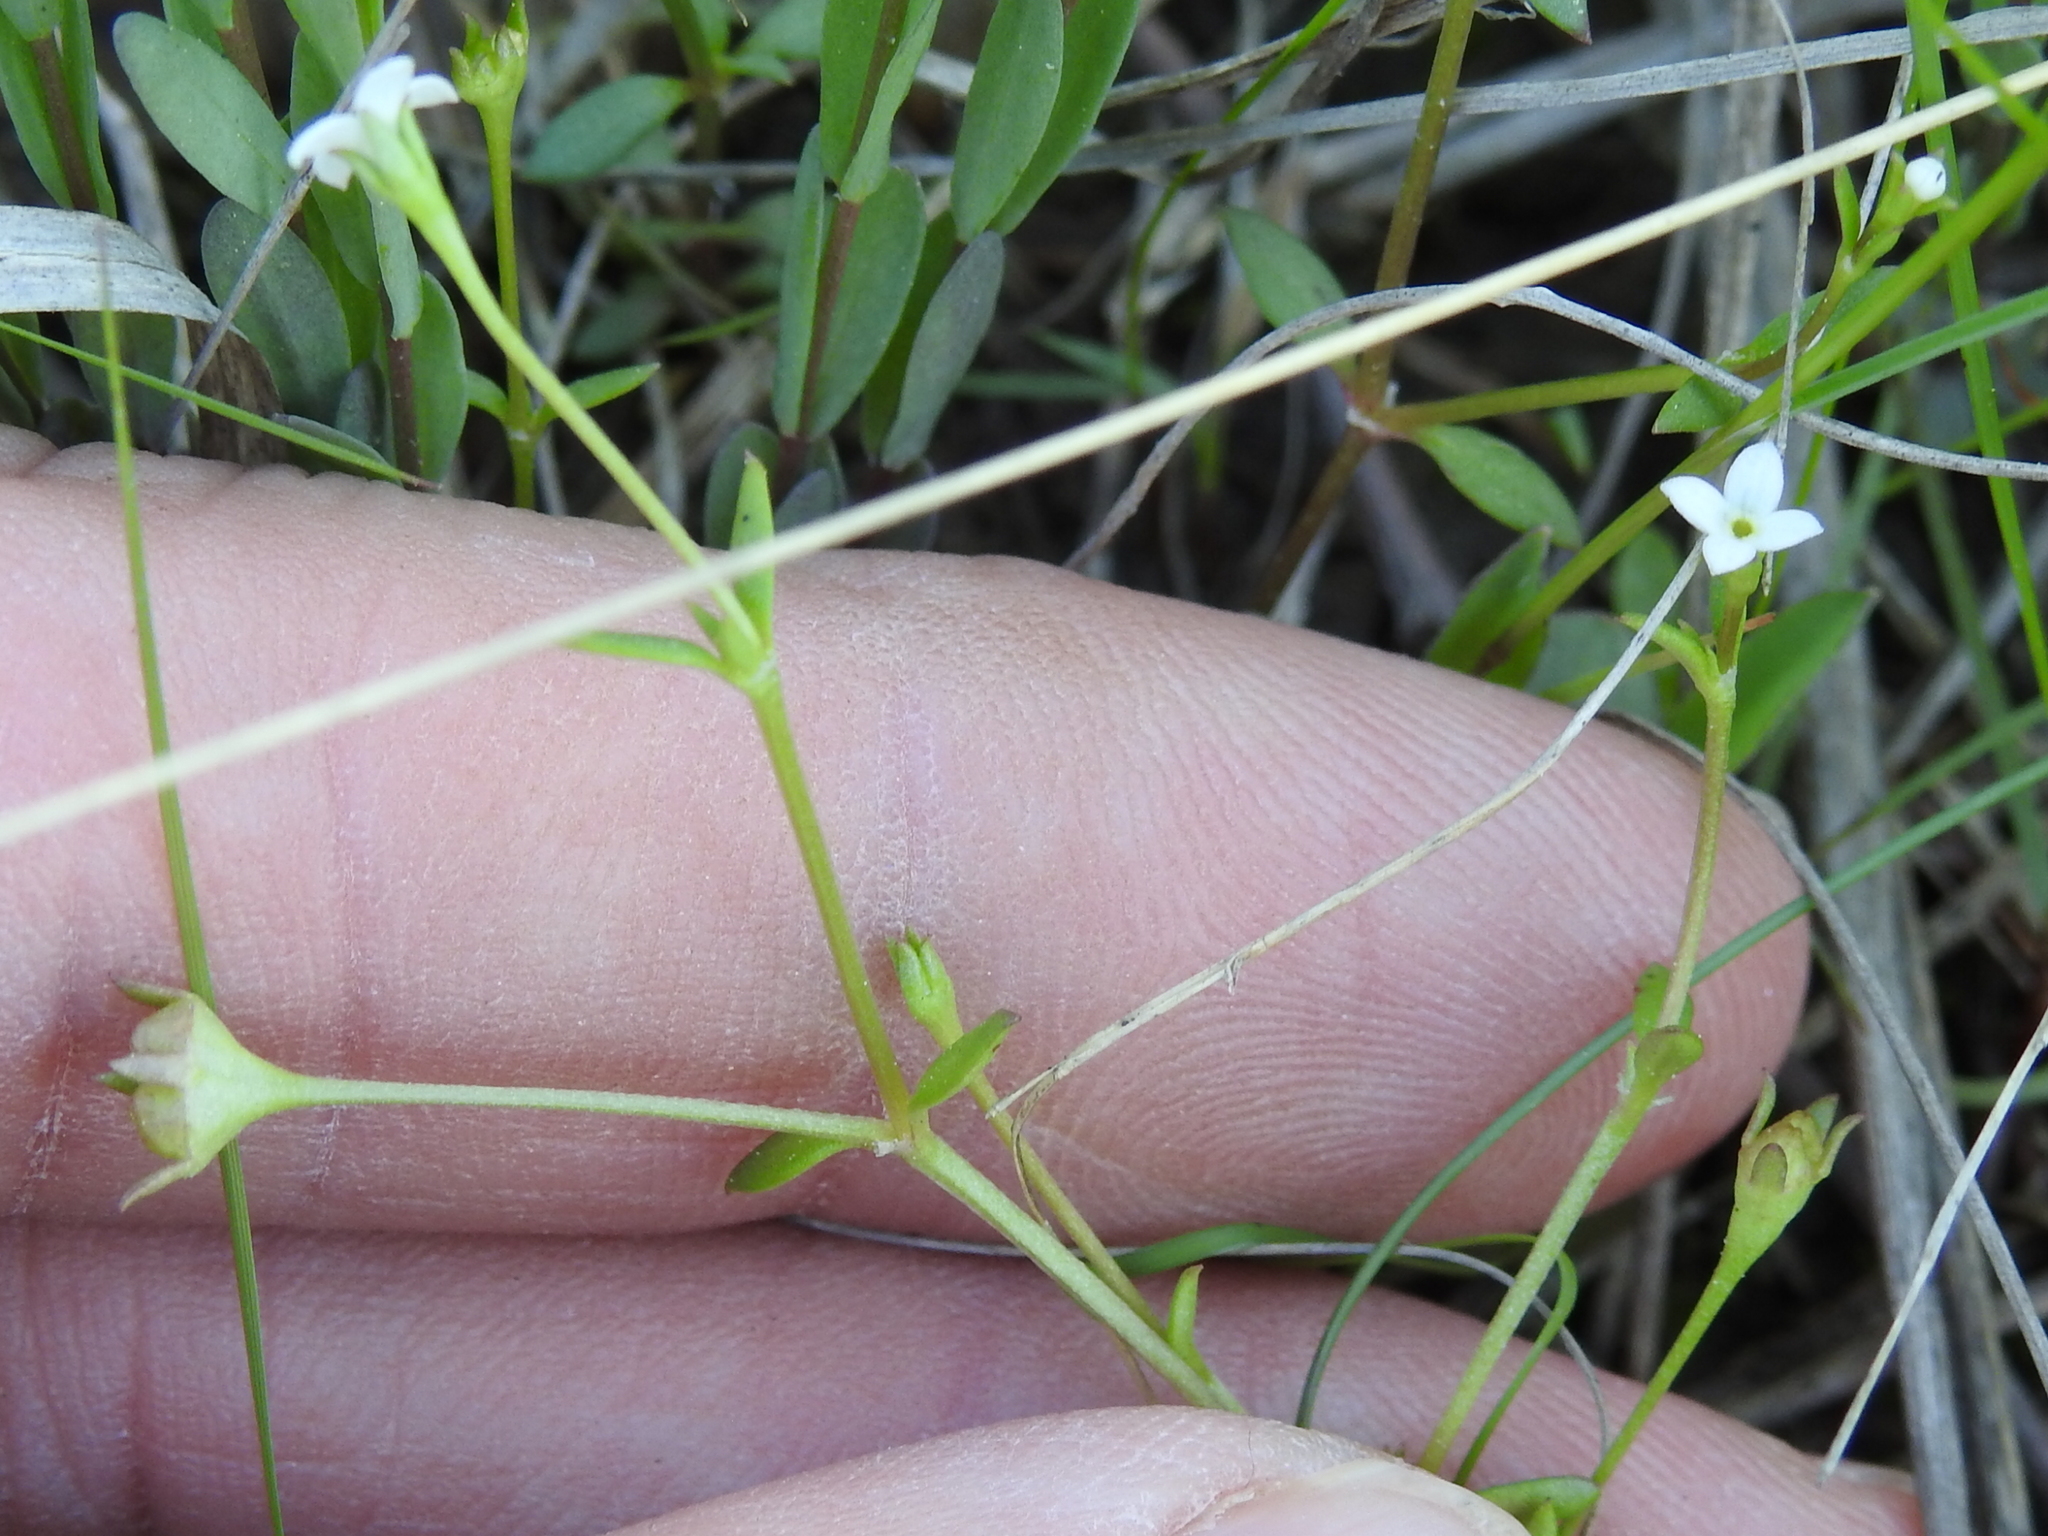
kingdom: Plantae
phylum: Tracheophyta
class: Magnoliopsida
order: Gentianales
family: Rubiaceae
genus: Houstonia
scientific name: Houstonia micrantha
